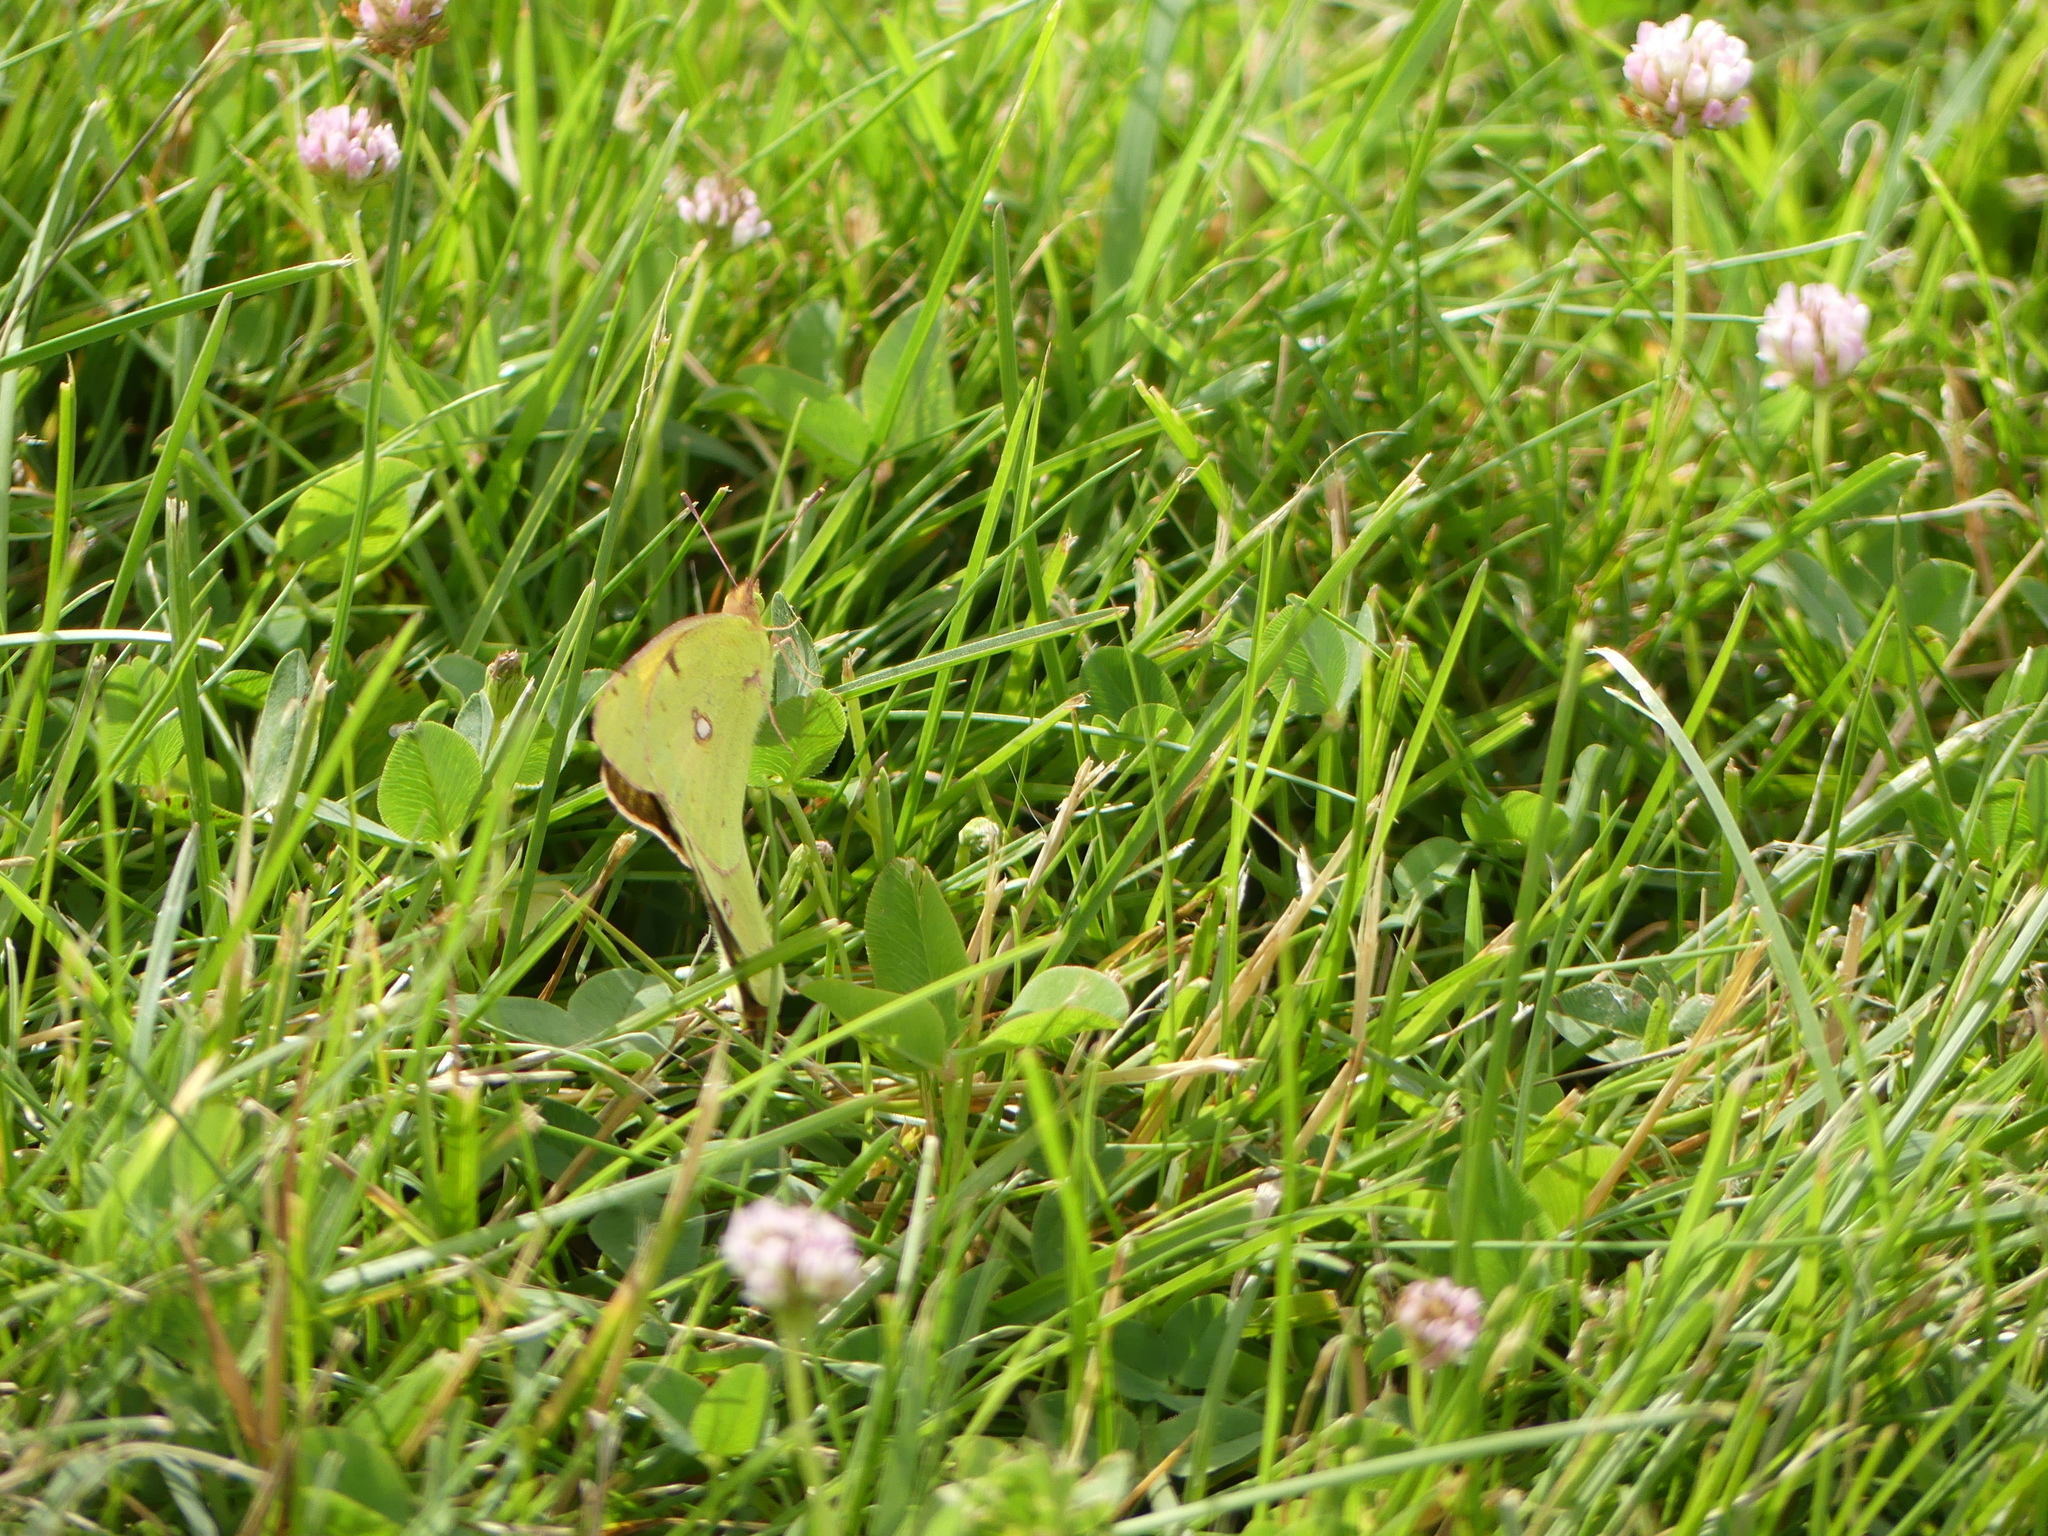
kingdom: Animalia
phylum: Arthropoda
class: Insecta
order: Lepidoptera
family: Pieridae
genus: Colias
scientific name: Colias croceus
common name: Clouded yellow
